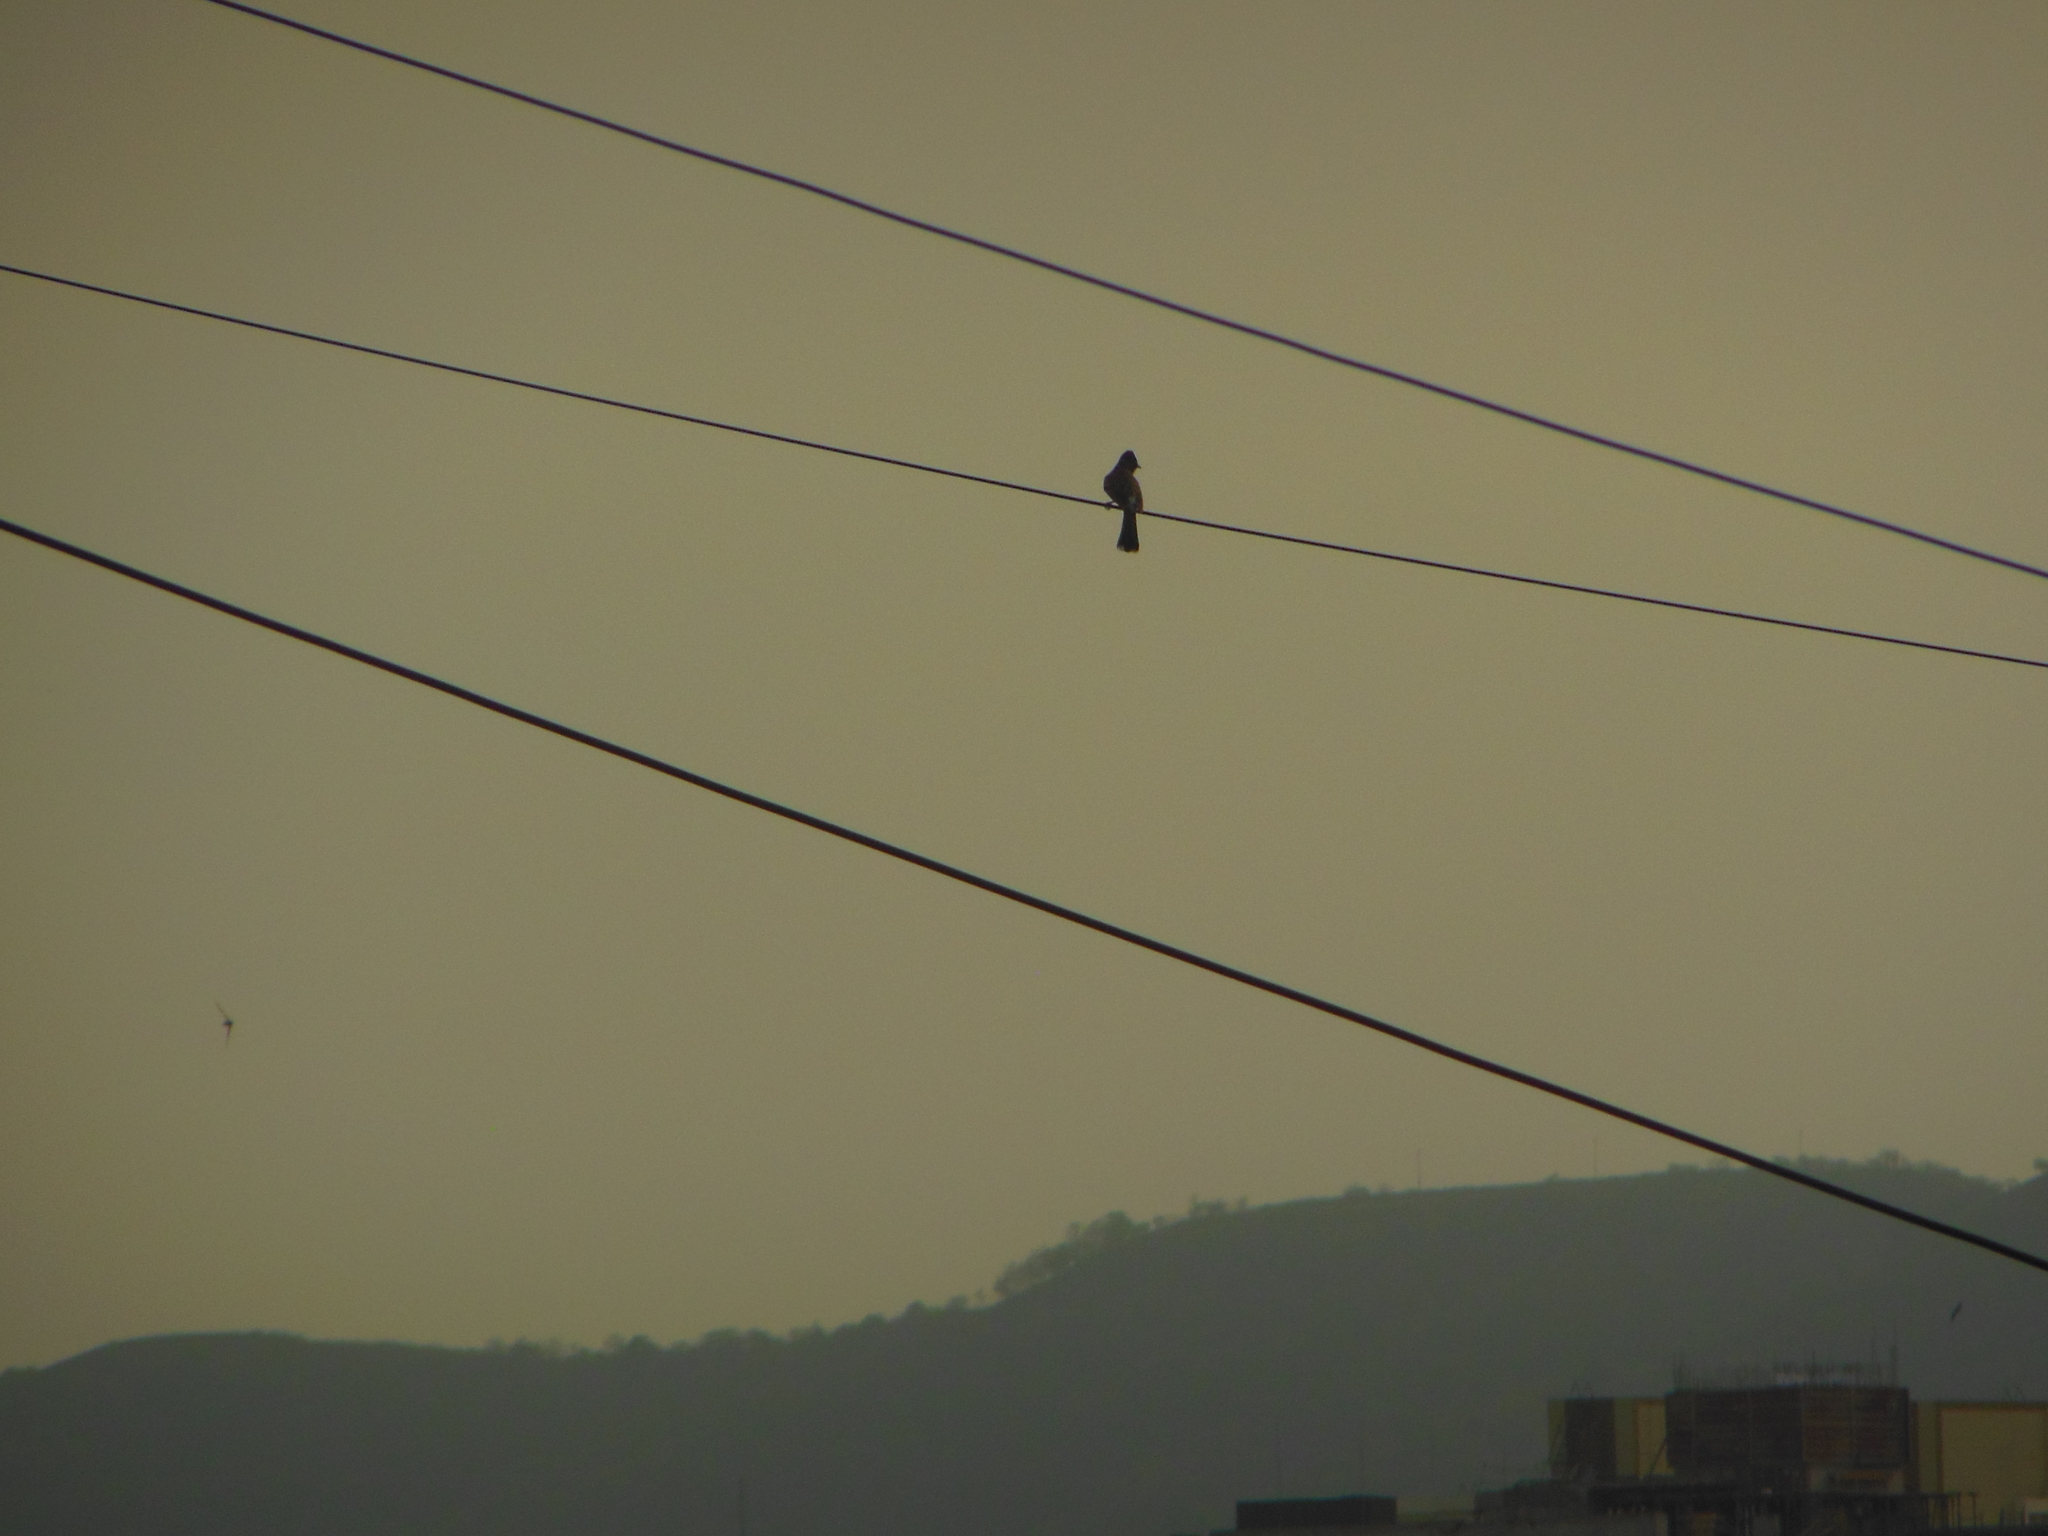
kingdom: Animalia
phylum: Chordata
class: Aves
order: Passeriformes
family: Pycnonotidae
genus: Pycnonotus
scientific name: Pycnonotus cafer
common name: Red-vented bulbul
